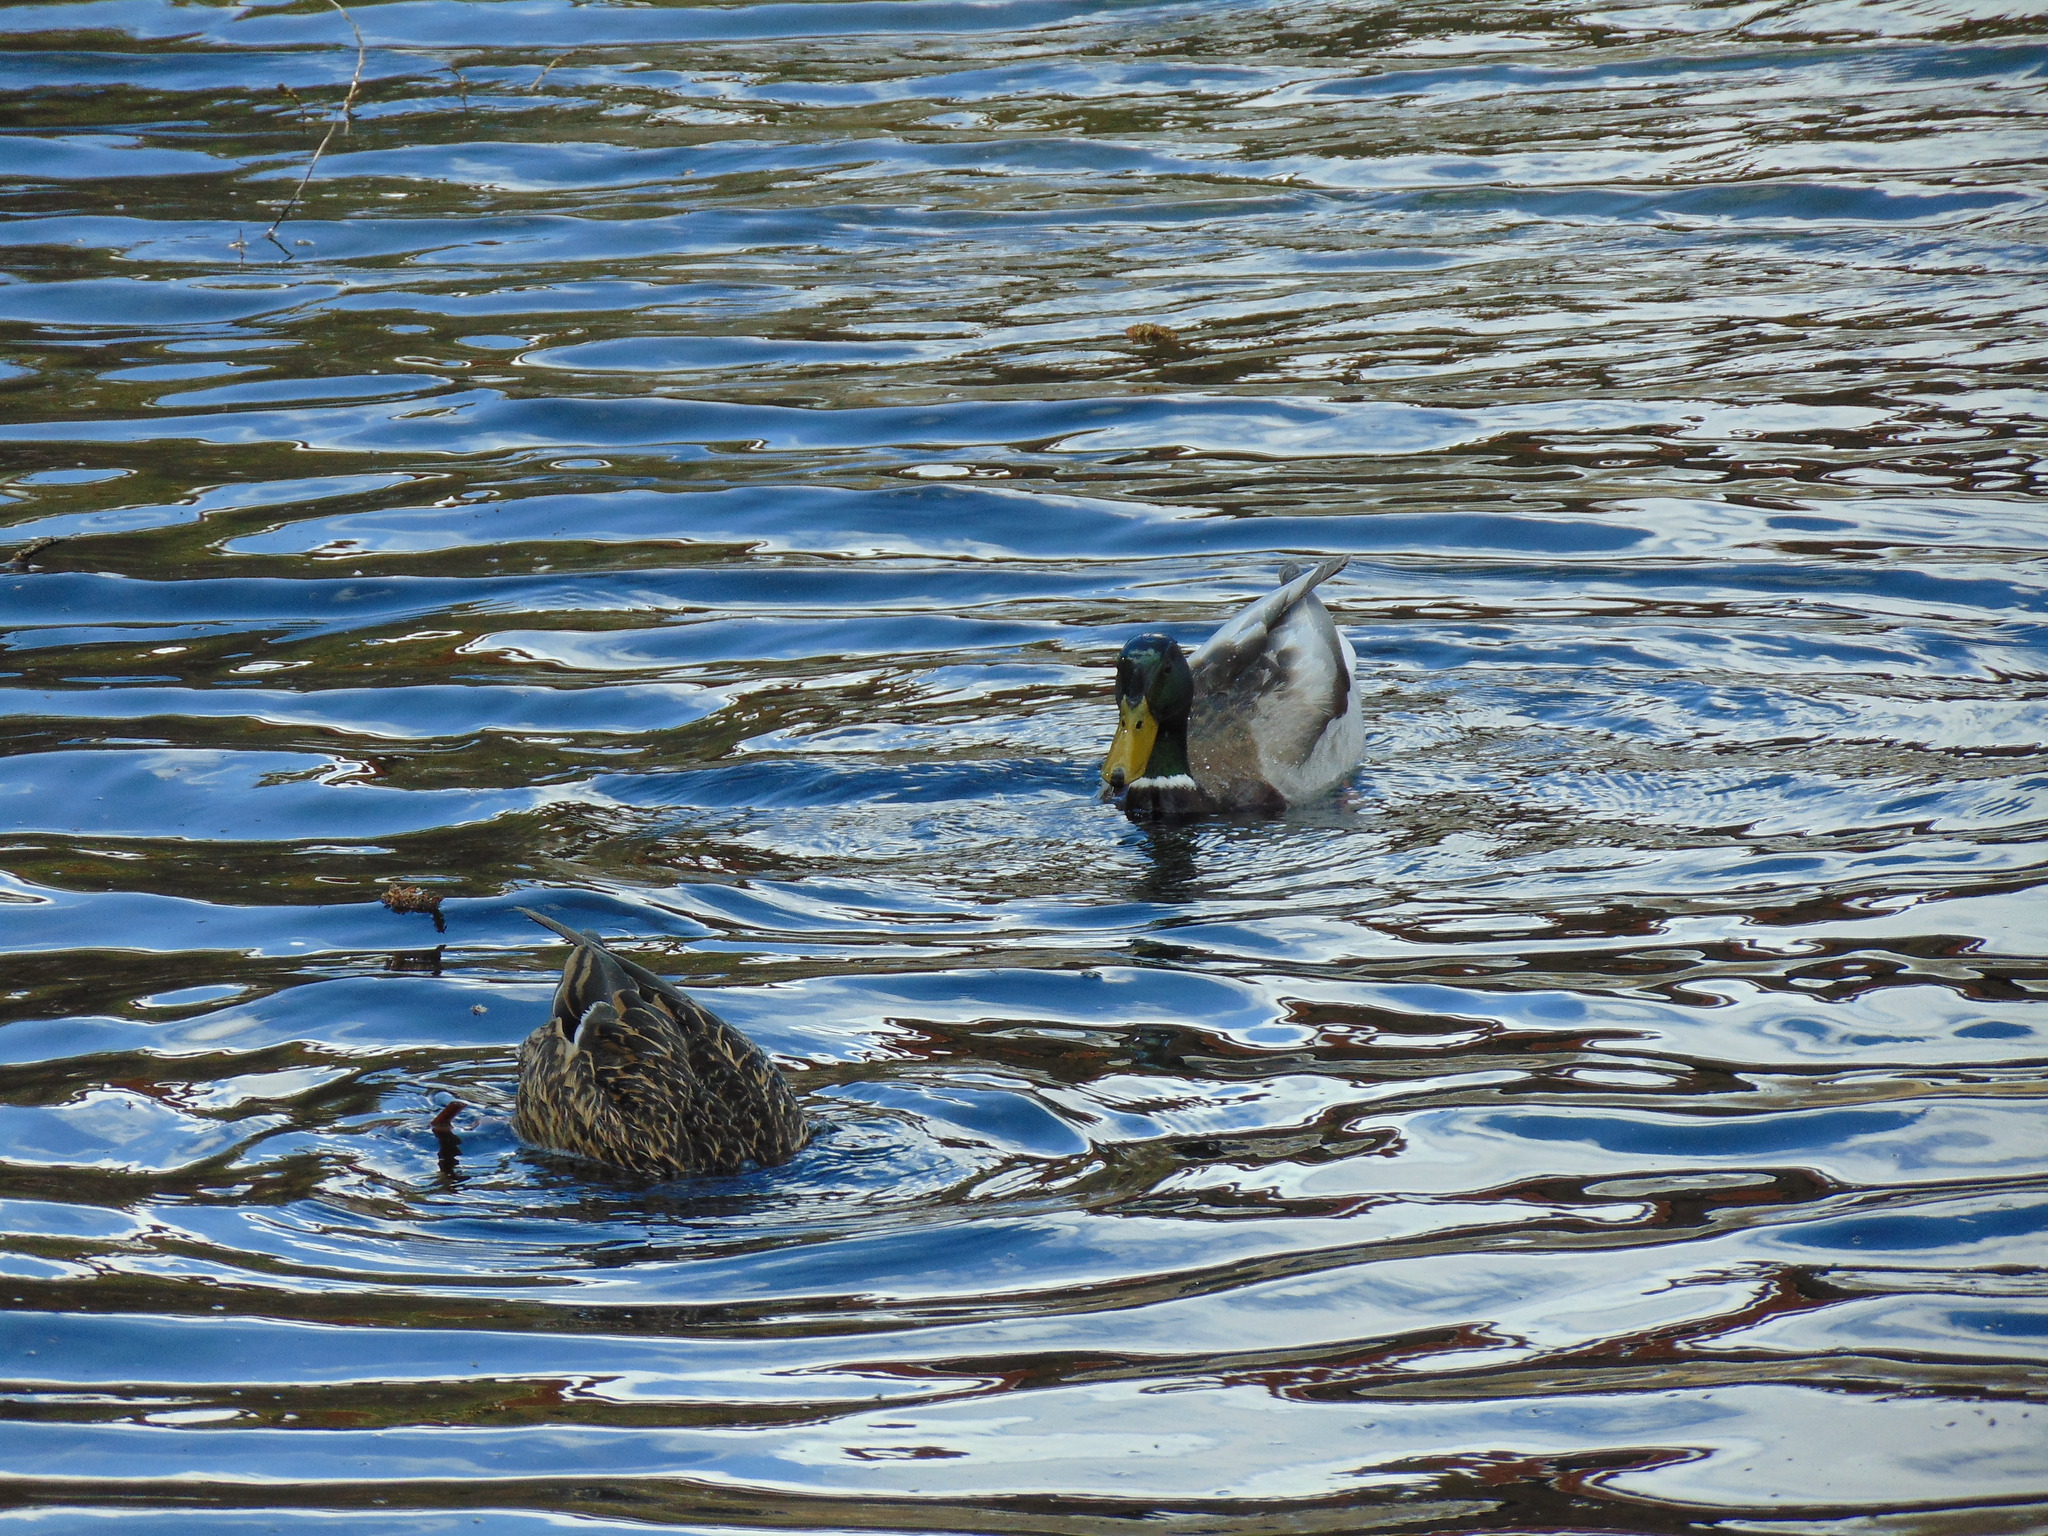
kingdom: Animalia
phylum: Chordata
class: Aves
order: Anseriformes
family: Anatidae
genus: Anas
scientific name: Anas platyrhynchos
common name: Mallard
